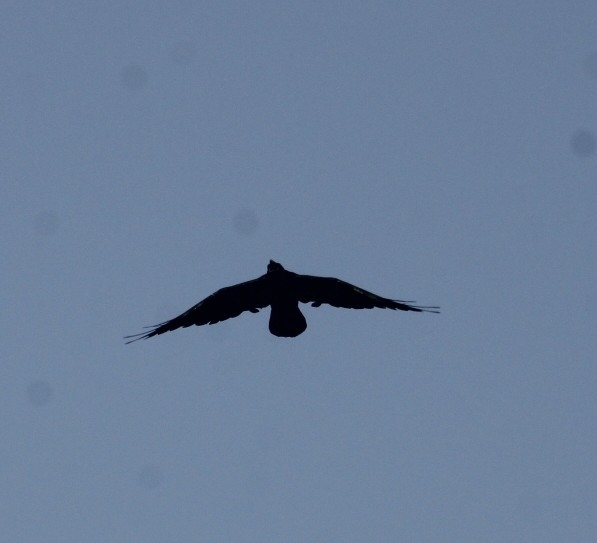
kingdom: Animalia
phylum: Chordata
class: Aves
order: Passeriformes
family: Corvidae
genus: Corvus
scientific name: Corvus corax
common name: Common raven
